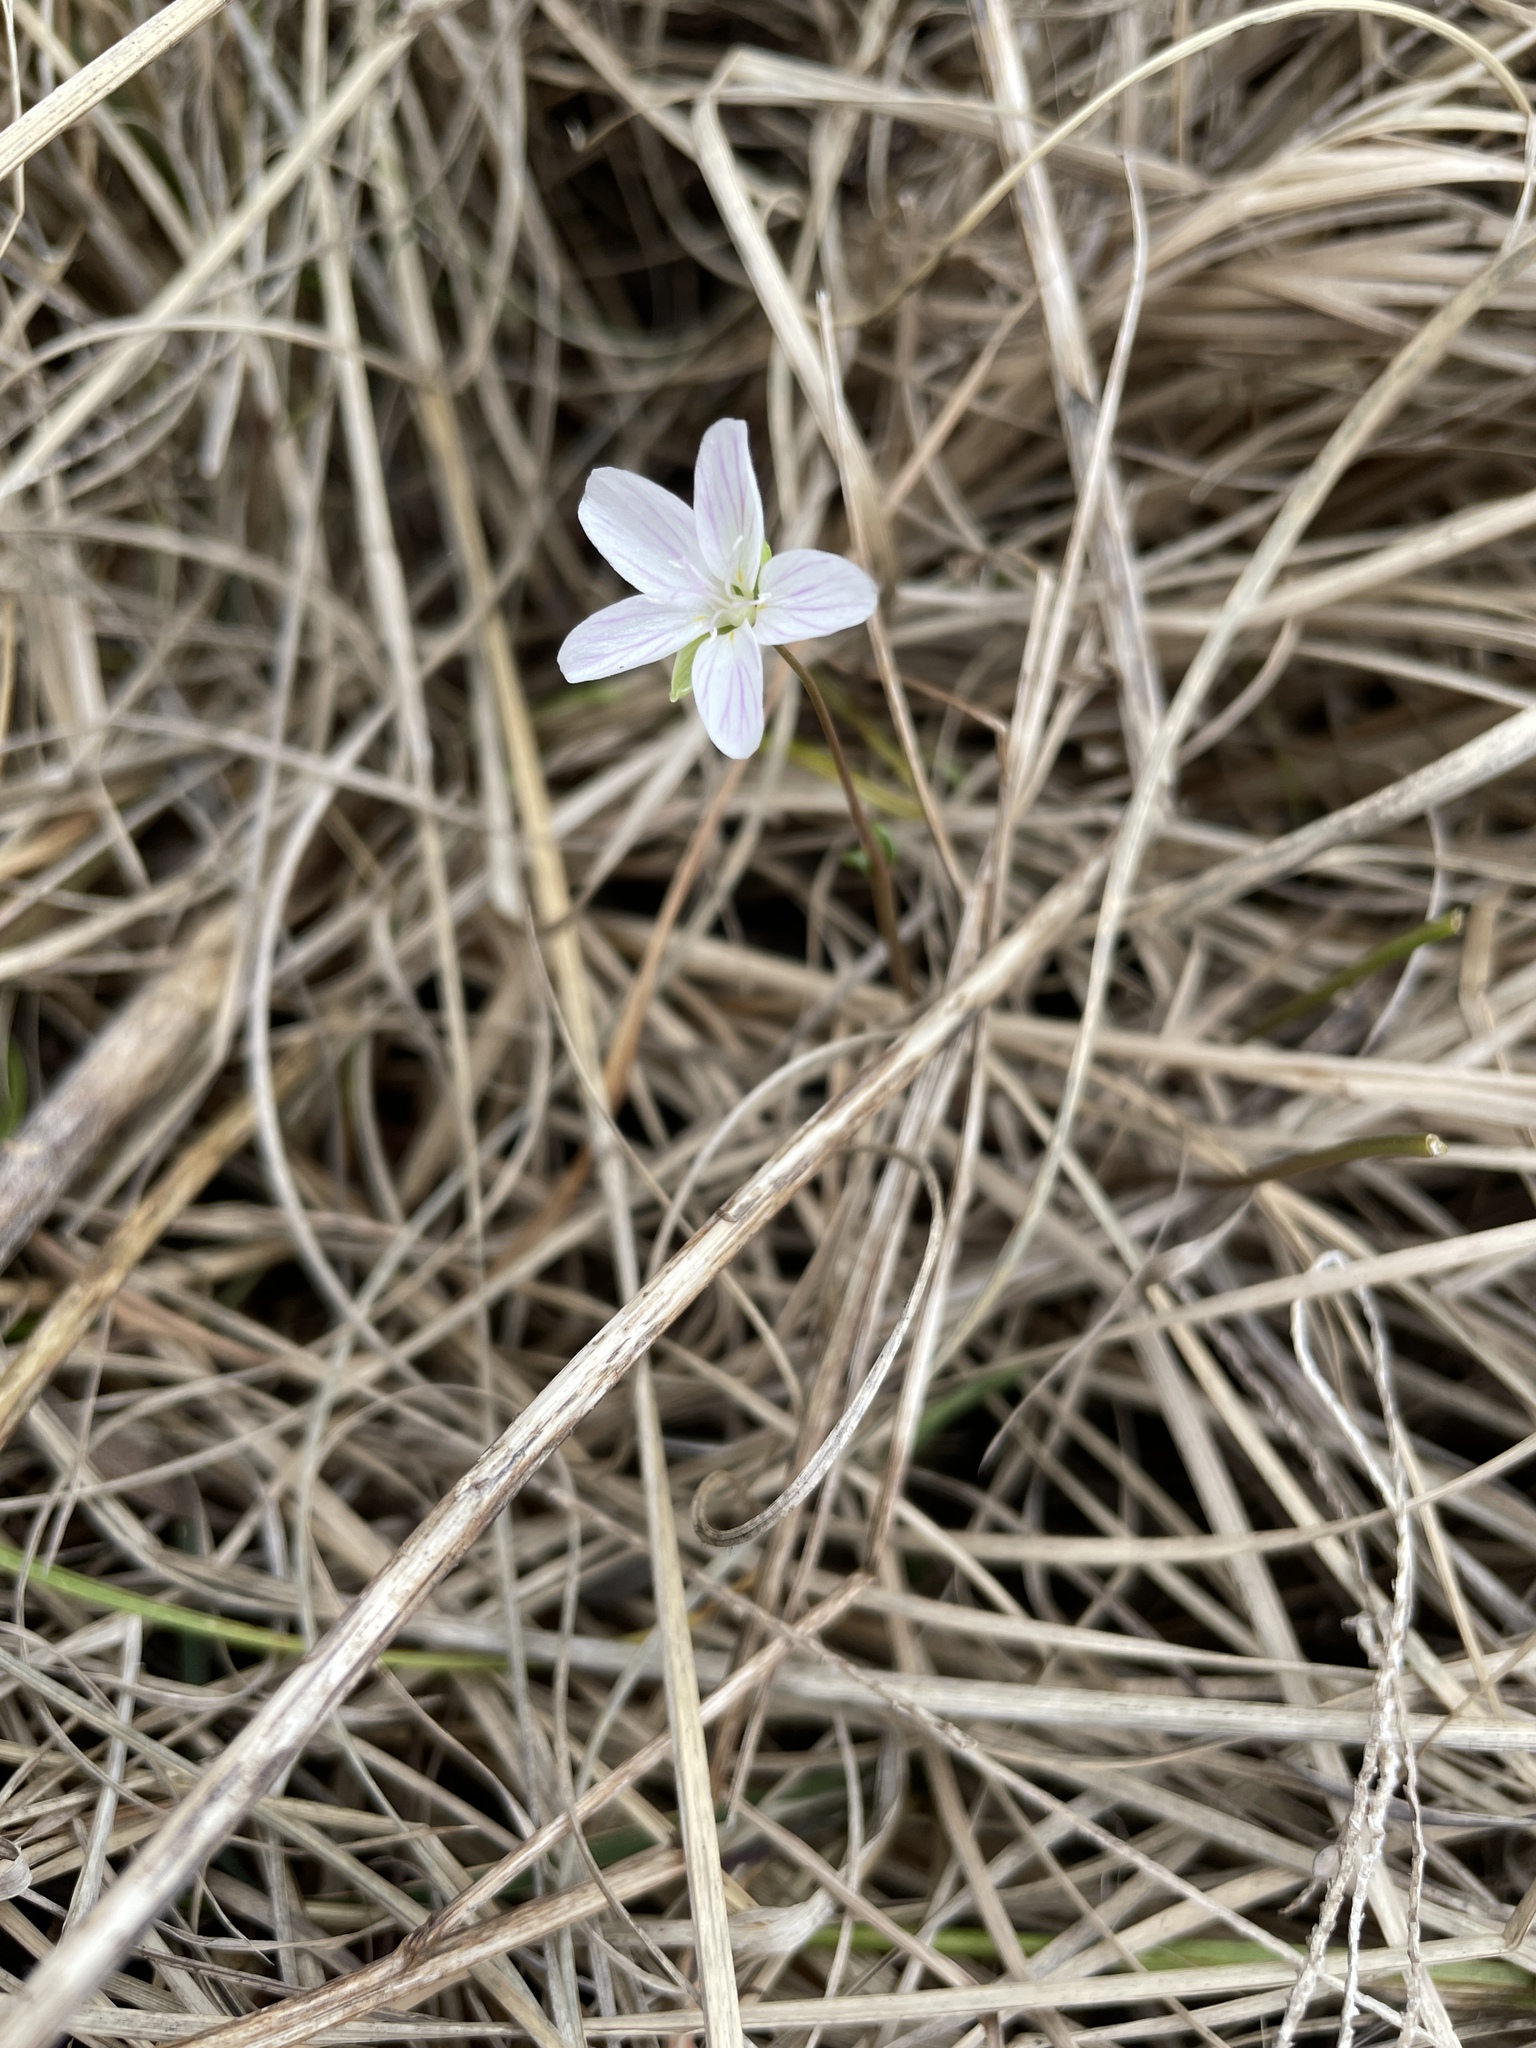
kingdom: Plantae
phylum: Tracheophyta
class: Magnoliopsida
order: Caryophyllales
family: Montiaceae
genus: Claytonia
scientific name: Claytonia virginica
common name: Virginia springbeauty
